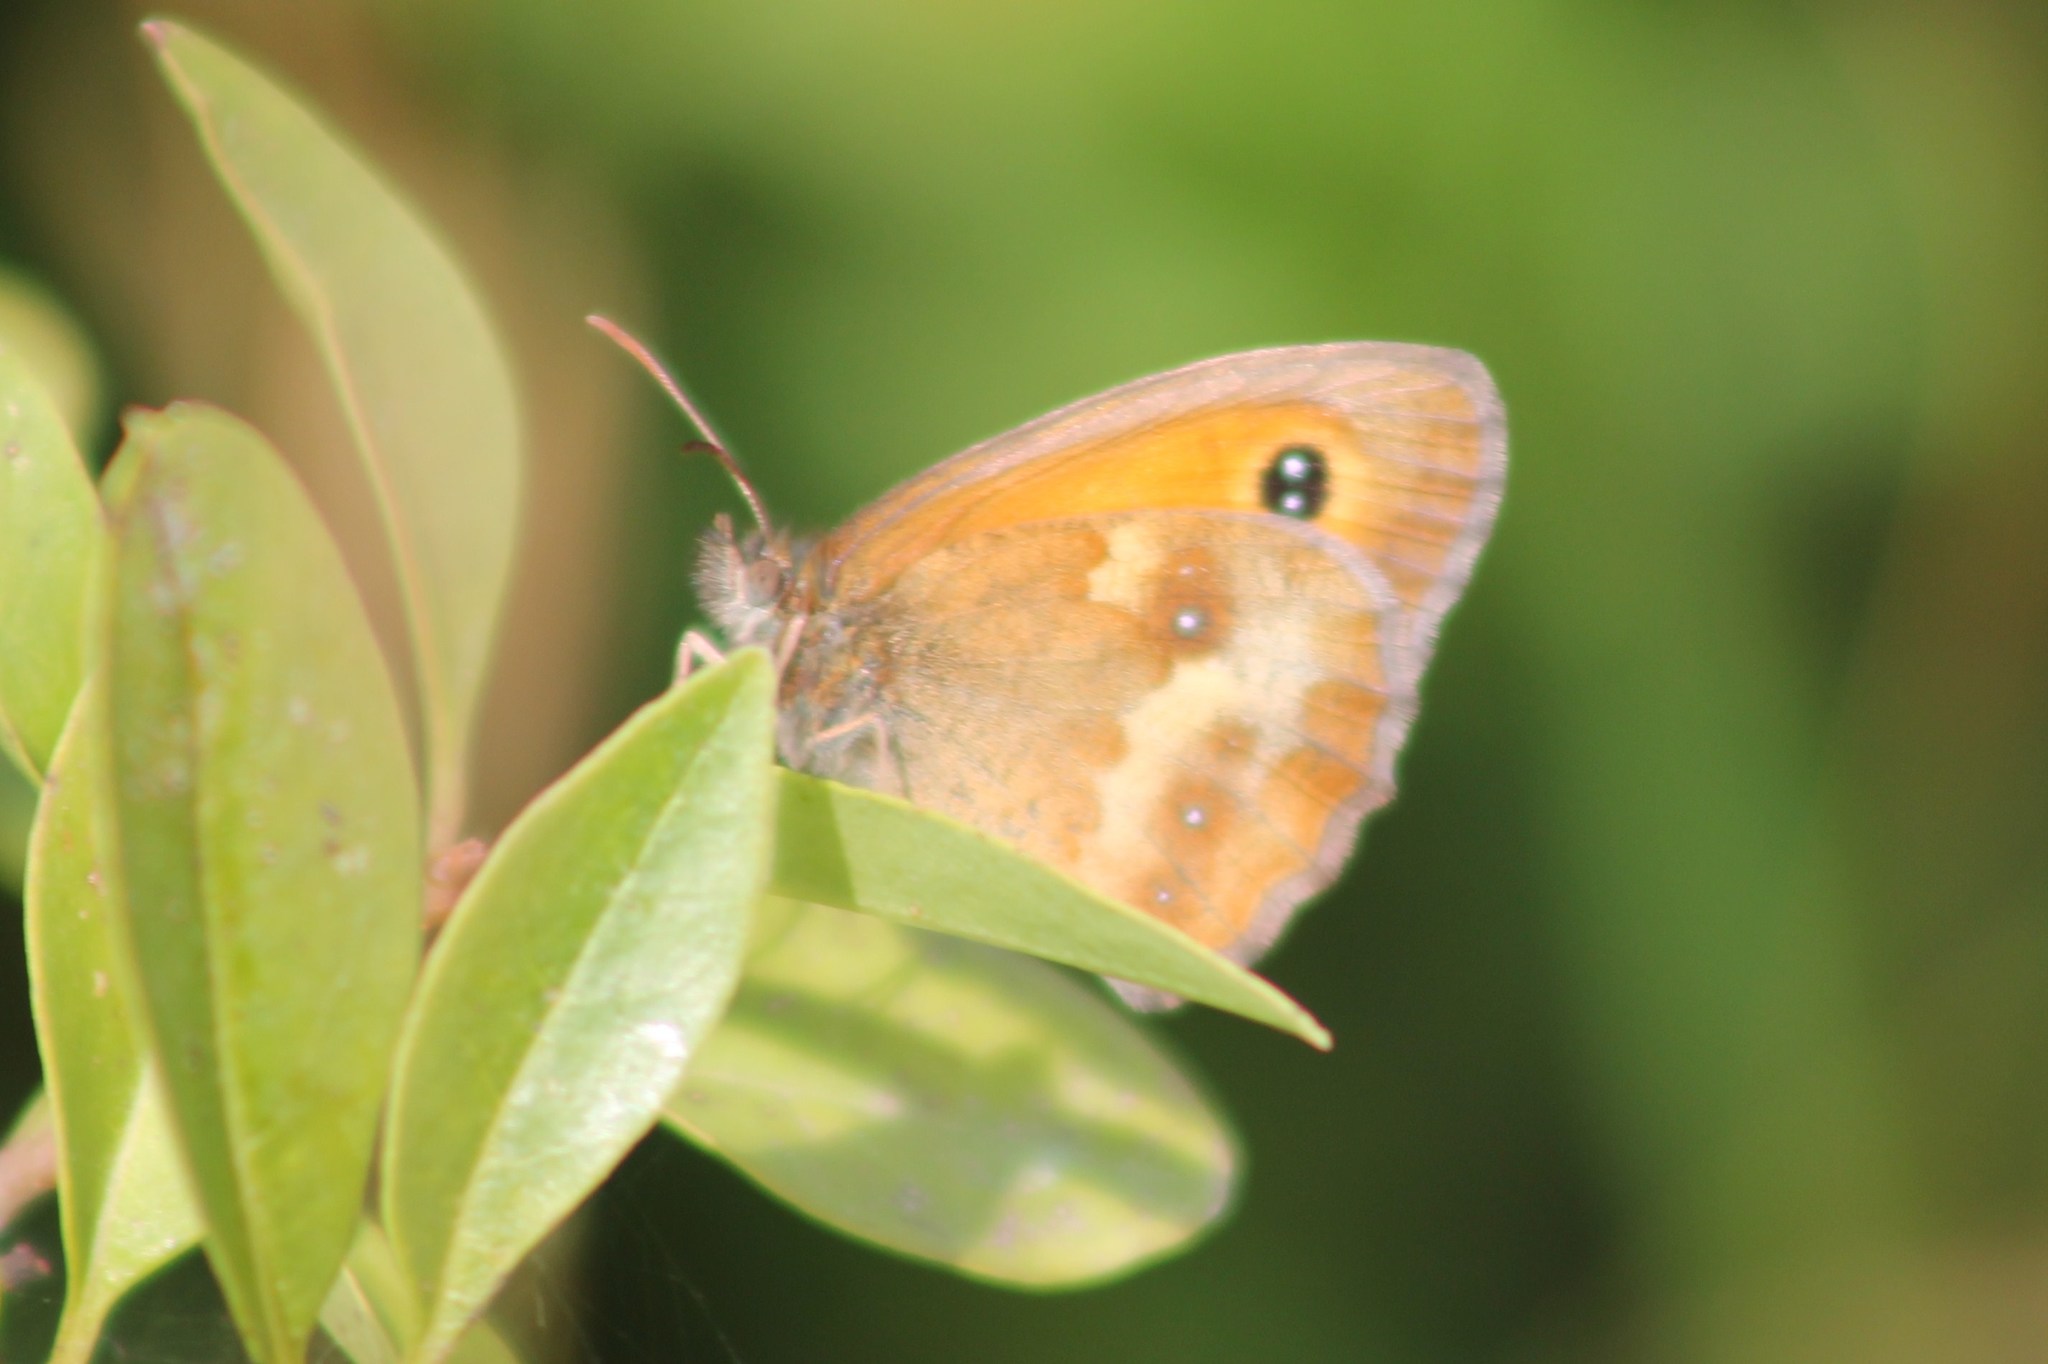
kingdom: Animalia
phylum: Arthropoda
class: Insecta
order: Lepidoptera
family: Nymphalidae
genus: Pyronia
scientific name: Pyronia tithonus
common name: Gatekeeper
